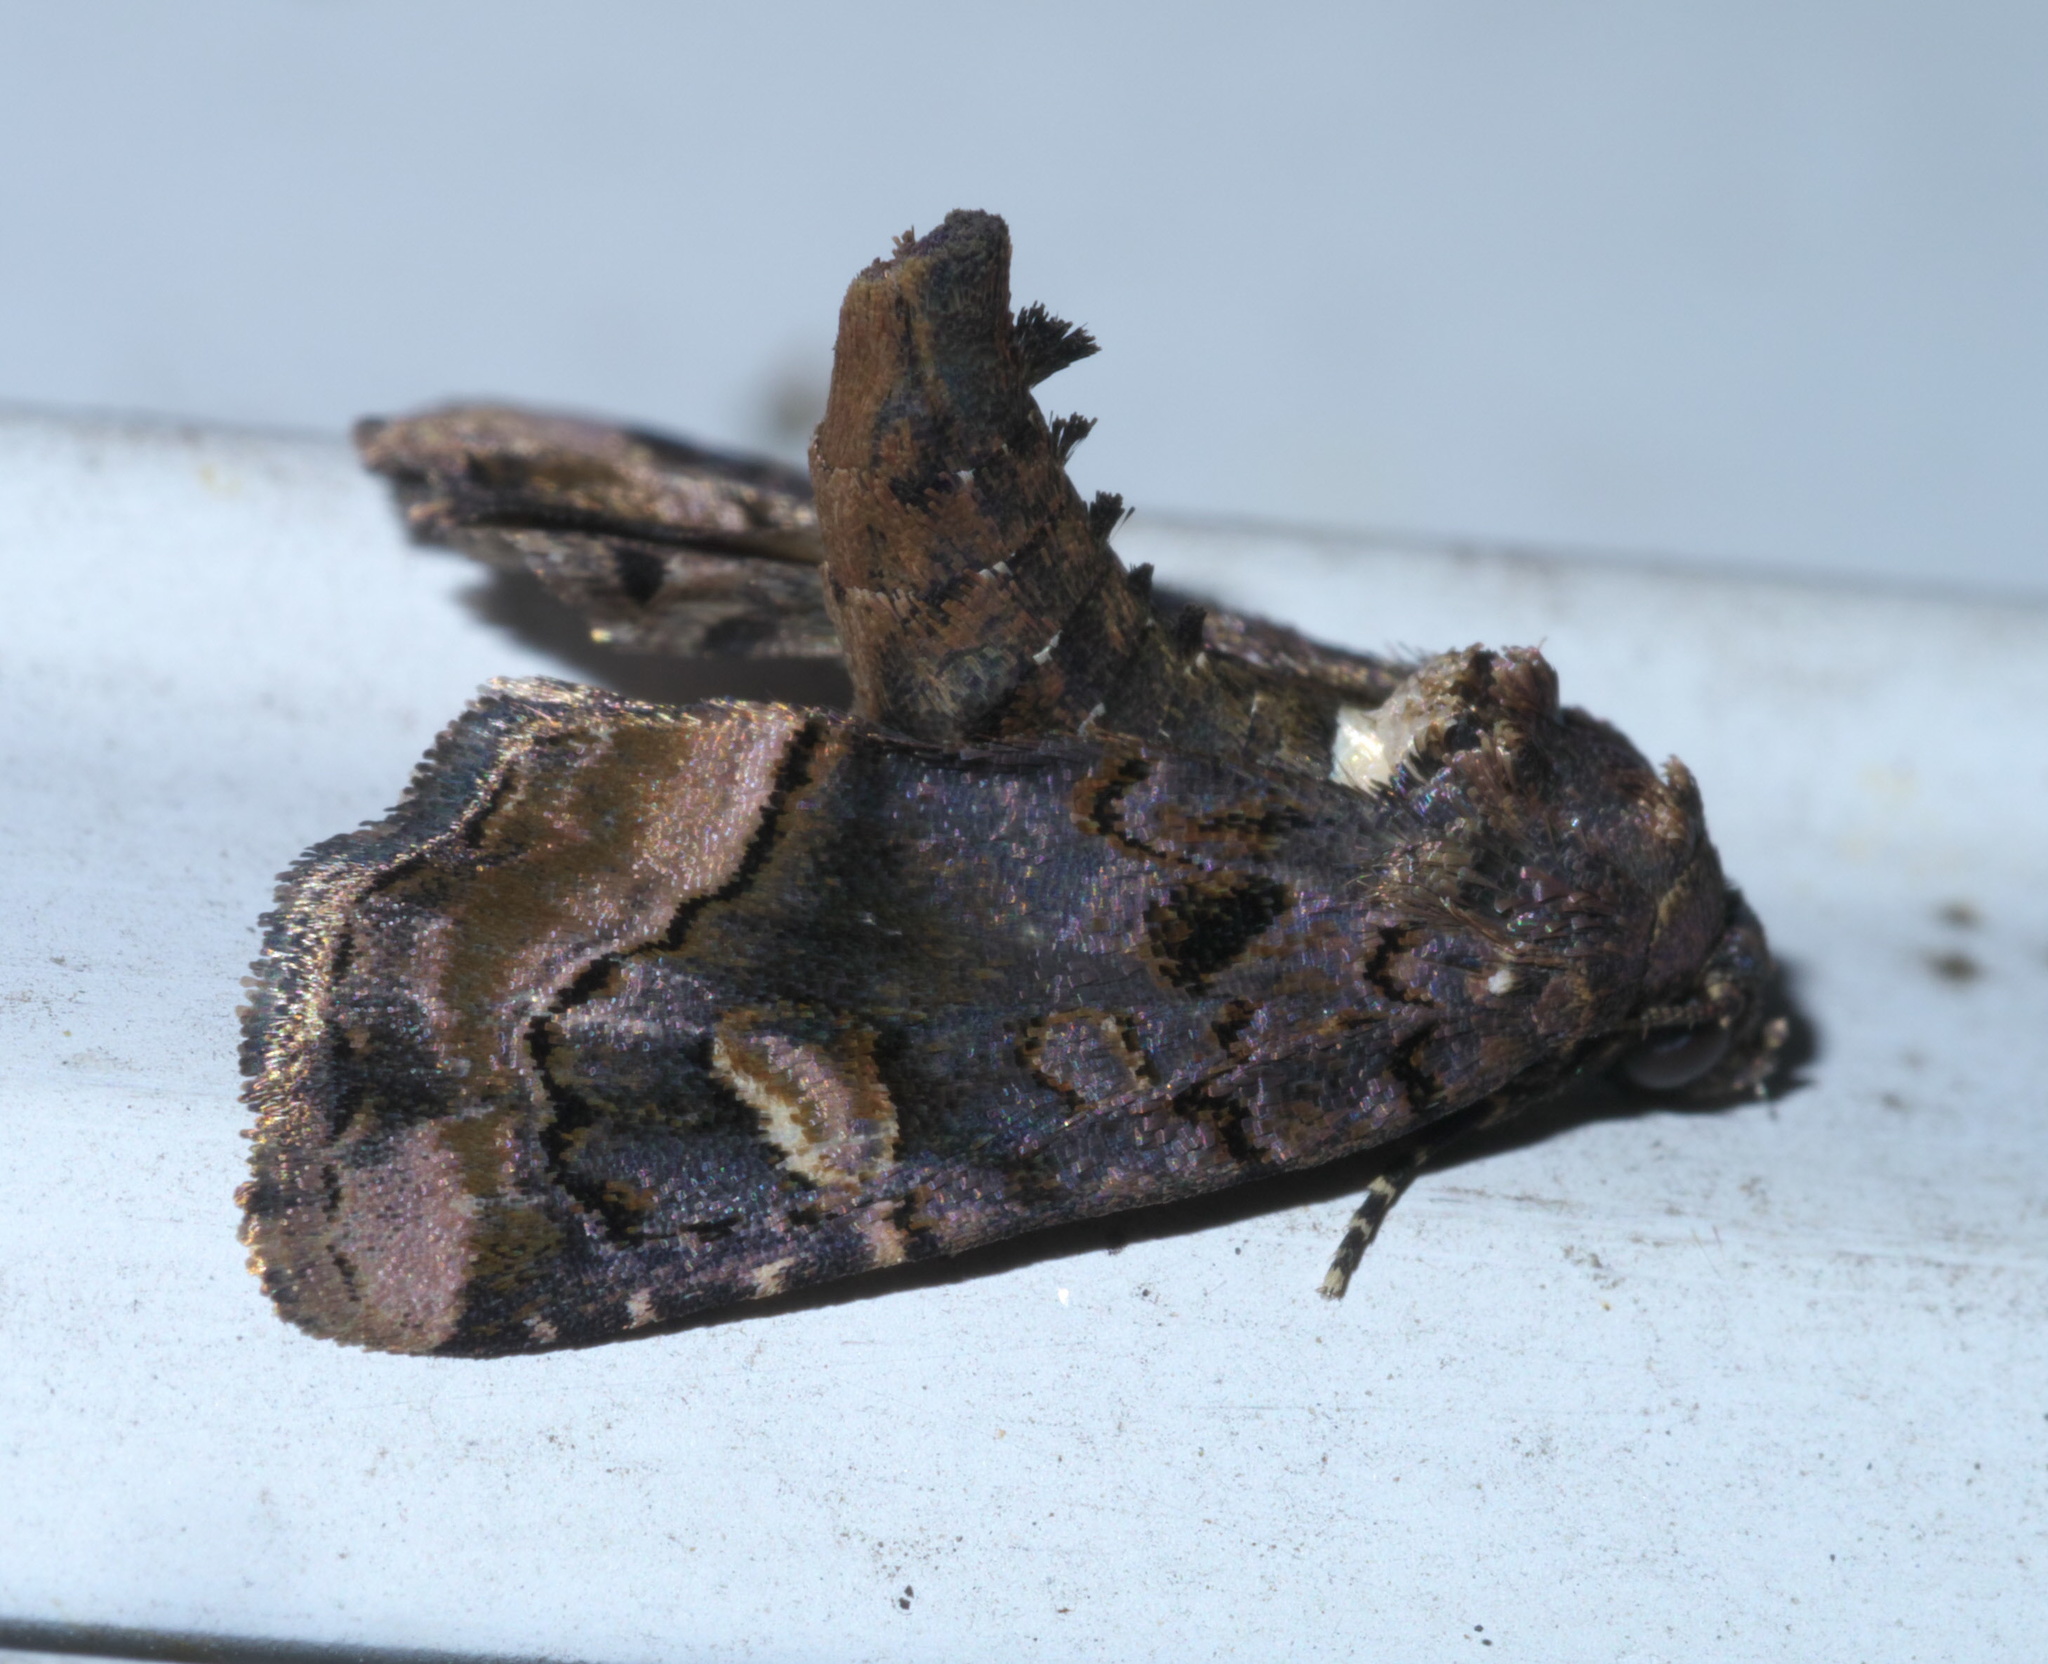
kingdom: Animalia
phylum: Arthropoda
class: Insecta
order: Lepidoptera
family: Noctuidae
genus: Homophoberia
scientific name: Homophoberia apicosa
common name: Black wedge-spot
